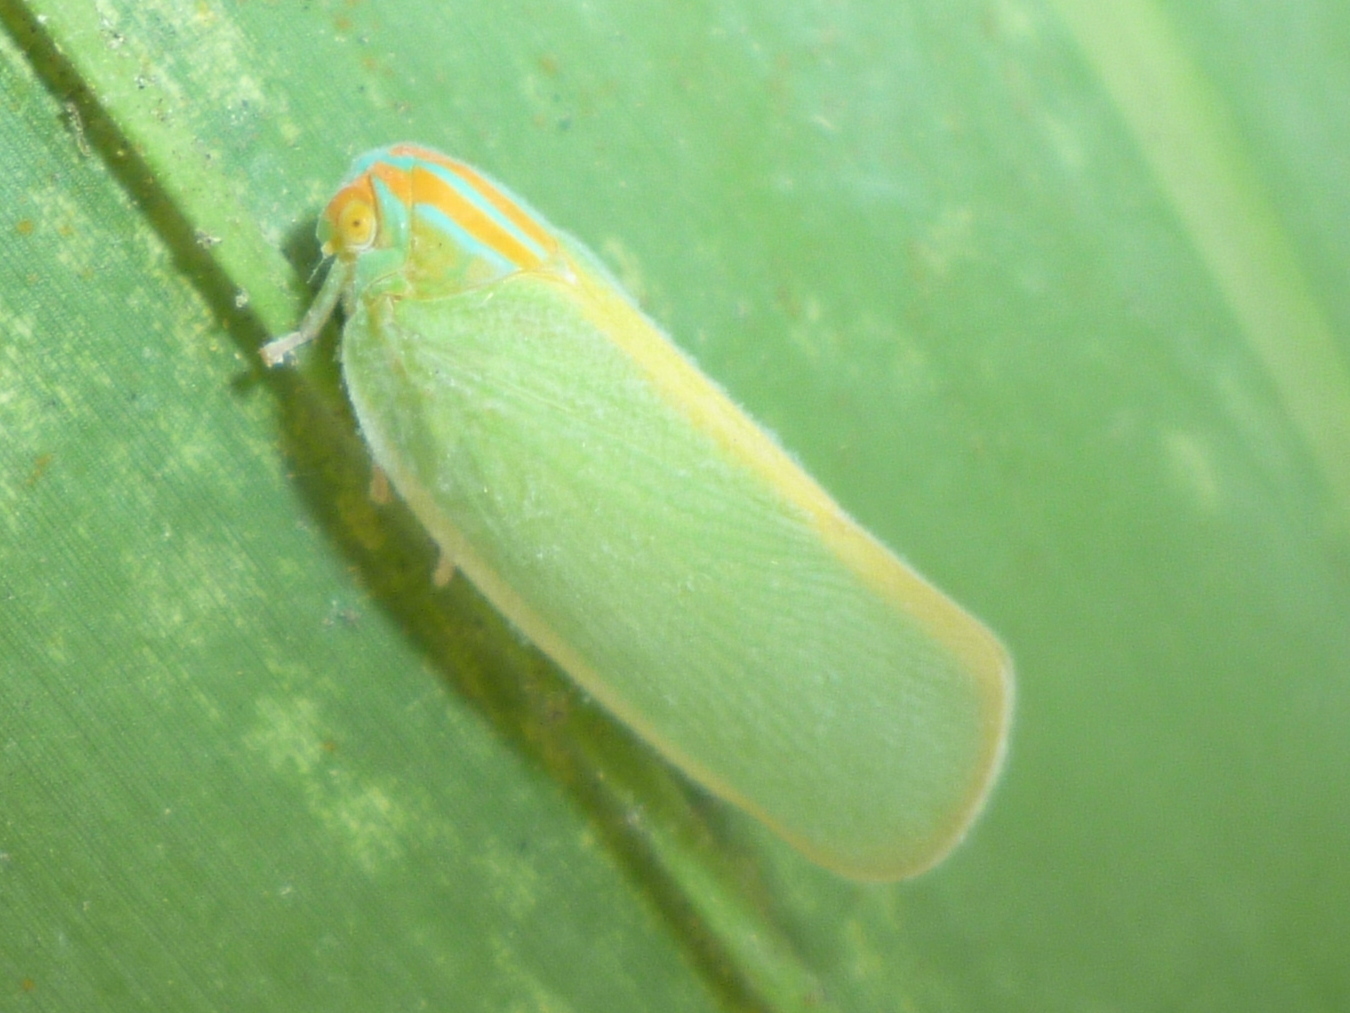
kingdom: Animalia
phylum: Arthropoda
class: Insecta
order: Hemiptera
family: Flatidae
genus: Ormenaria
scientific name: Ormenaria rufifascia
